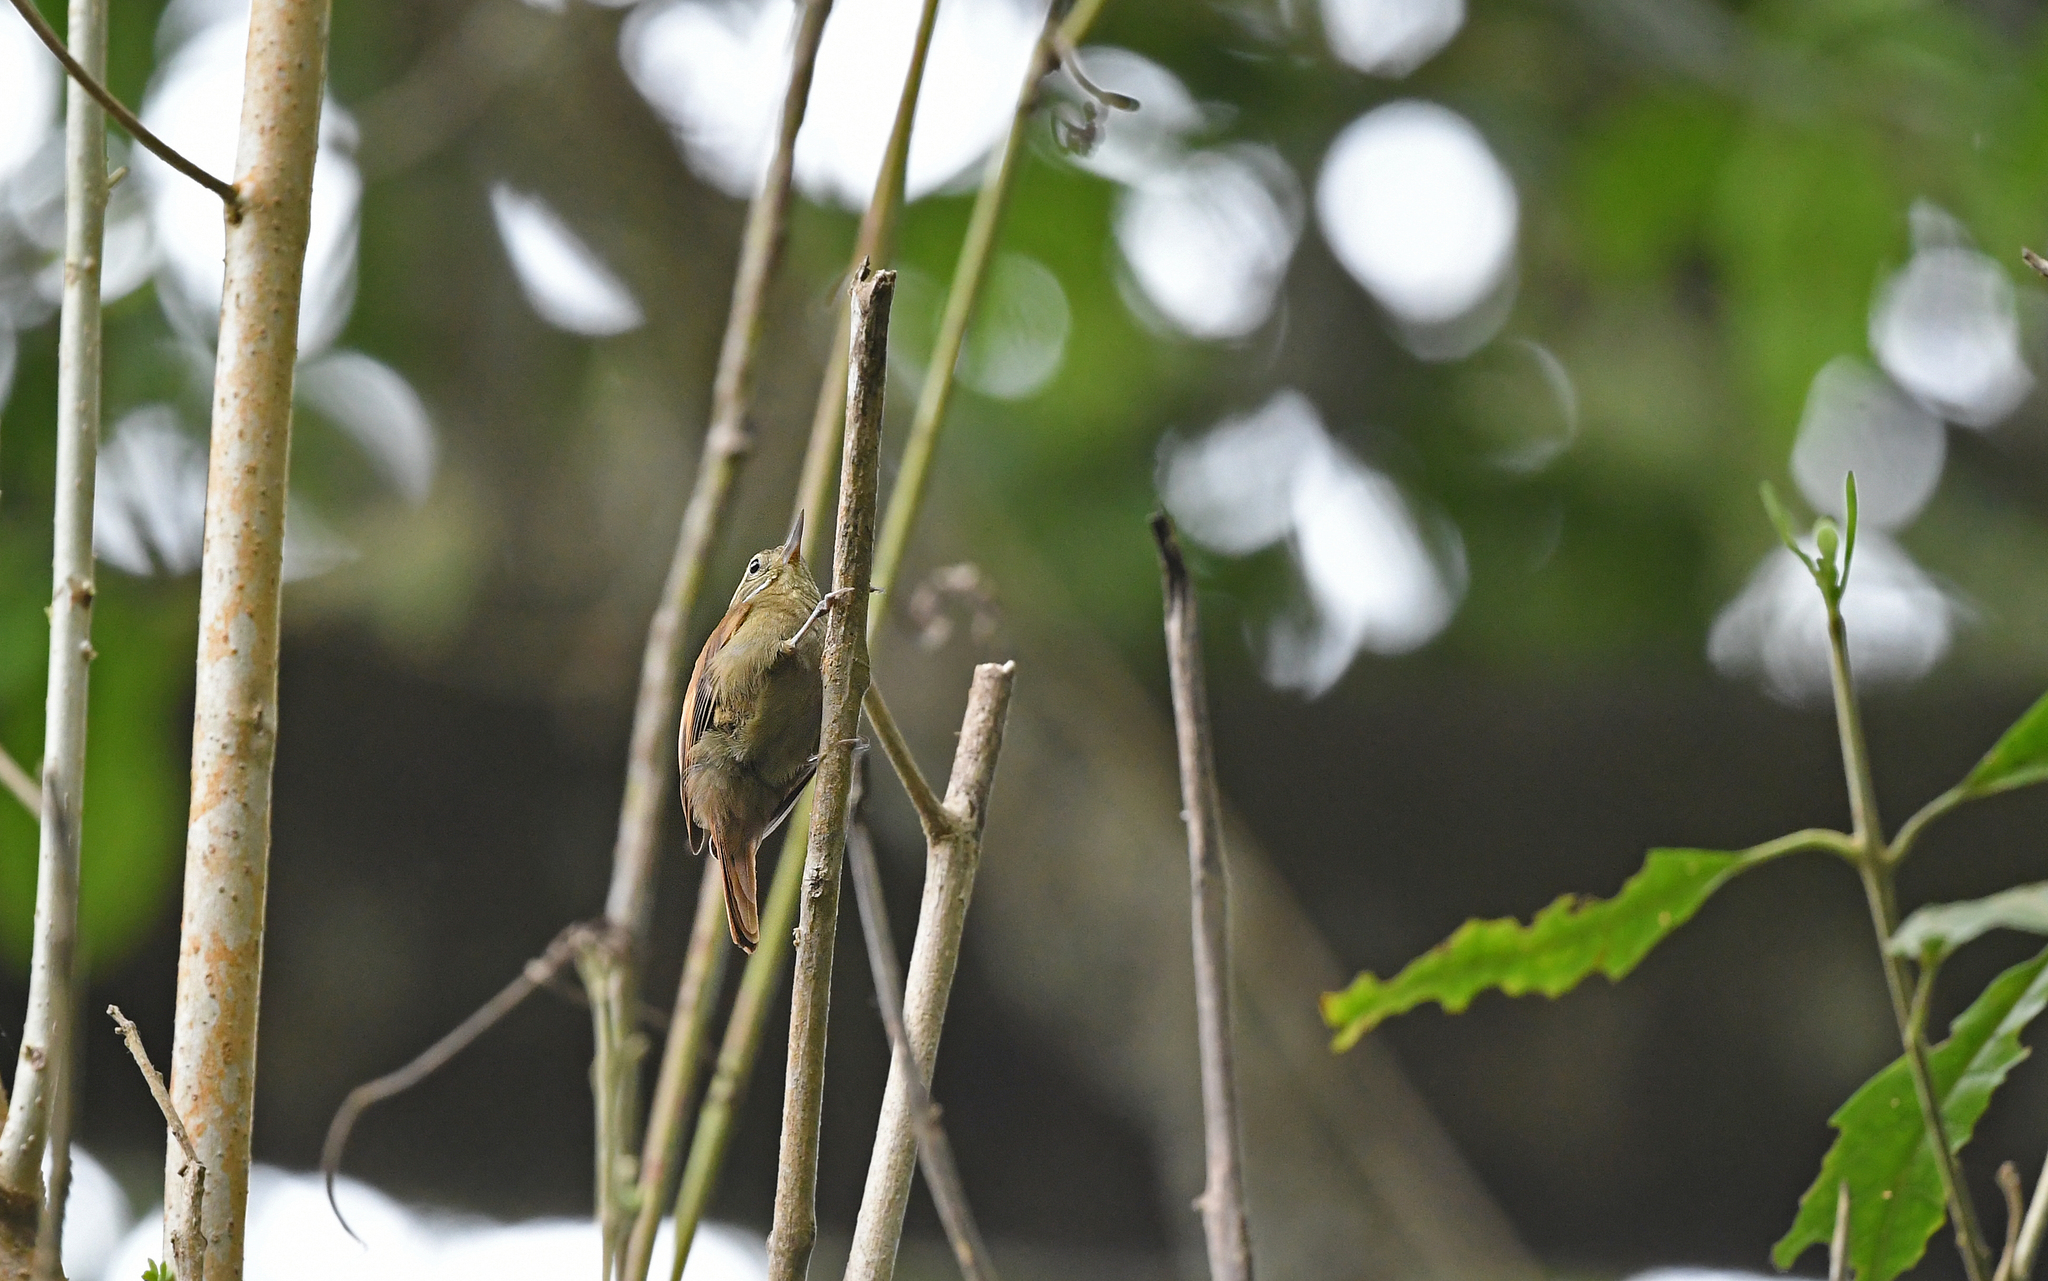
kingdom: Animalia
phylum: Chordata
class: Aves
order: Passeriformes
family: Furnariidae
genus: Xenops
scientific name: Xenops minutus
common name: Plain xenops
